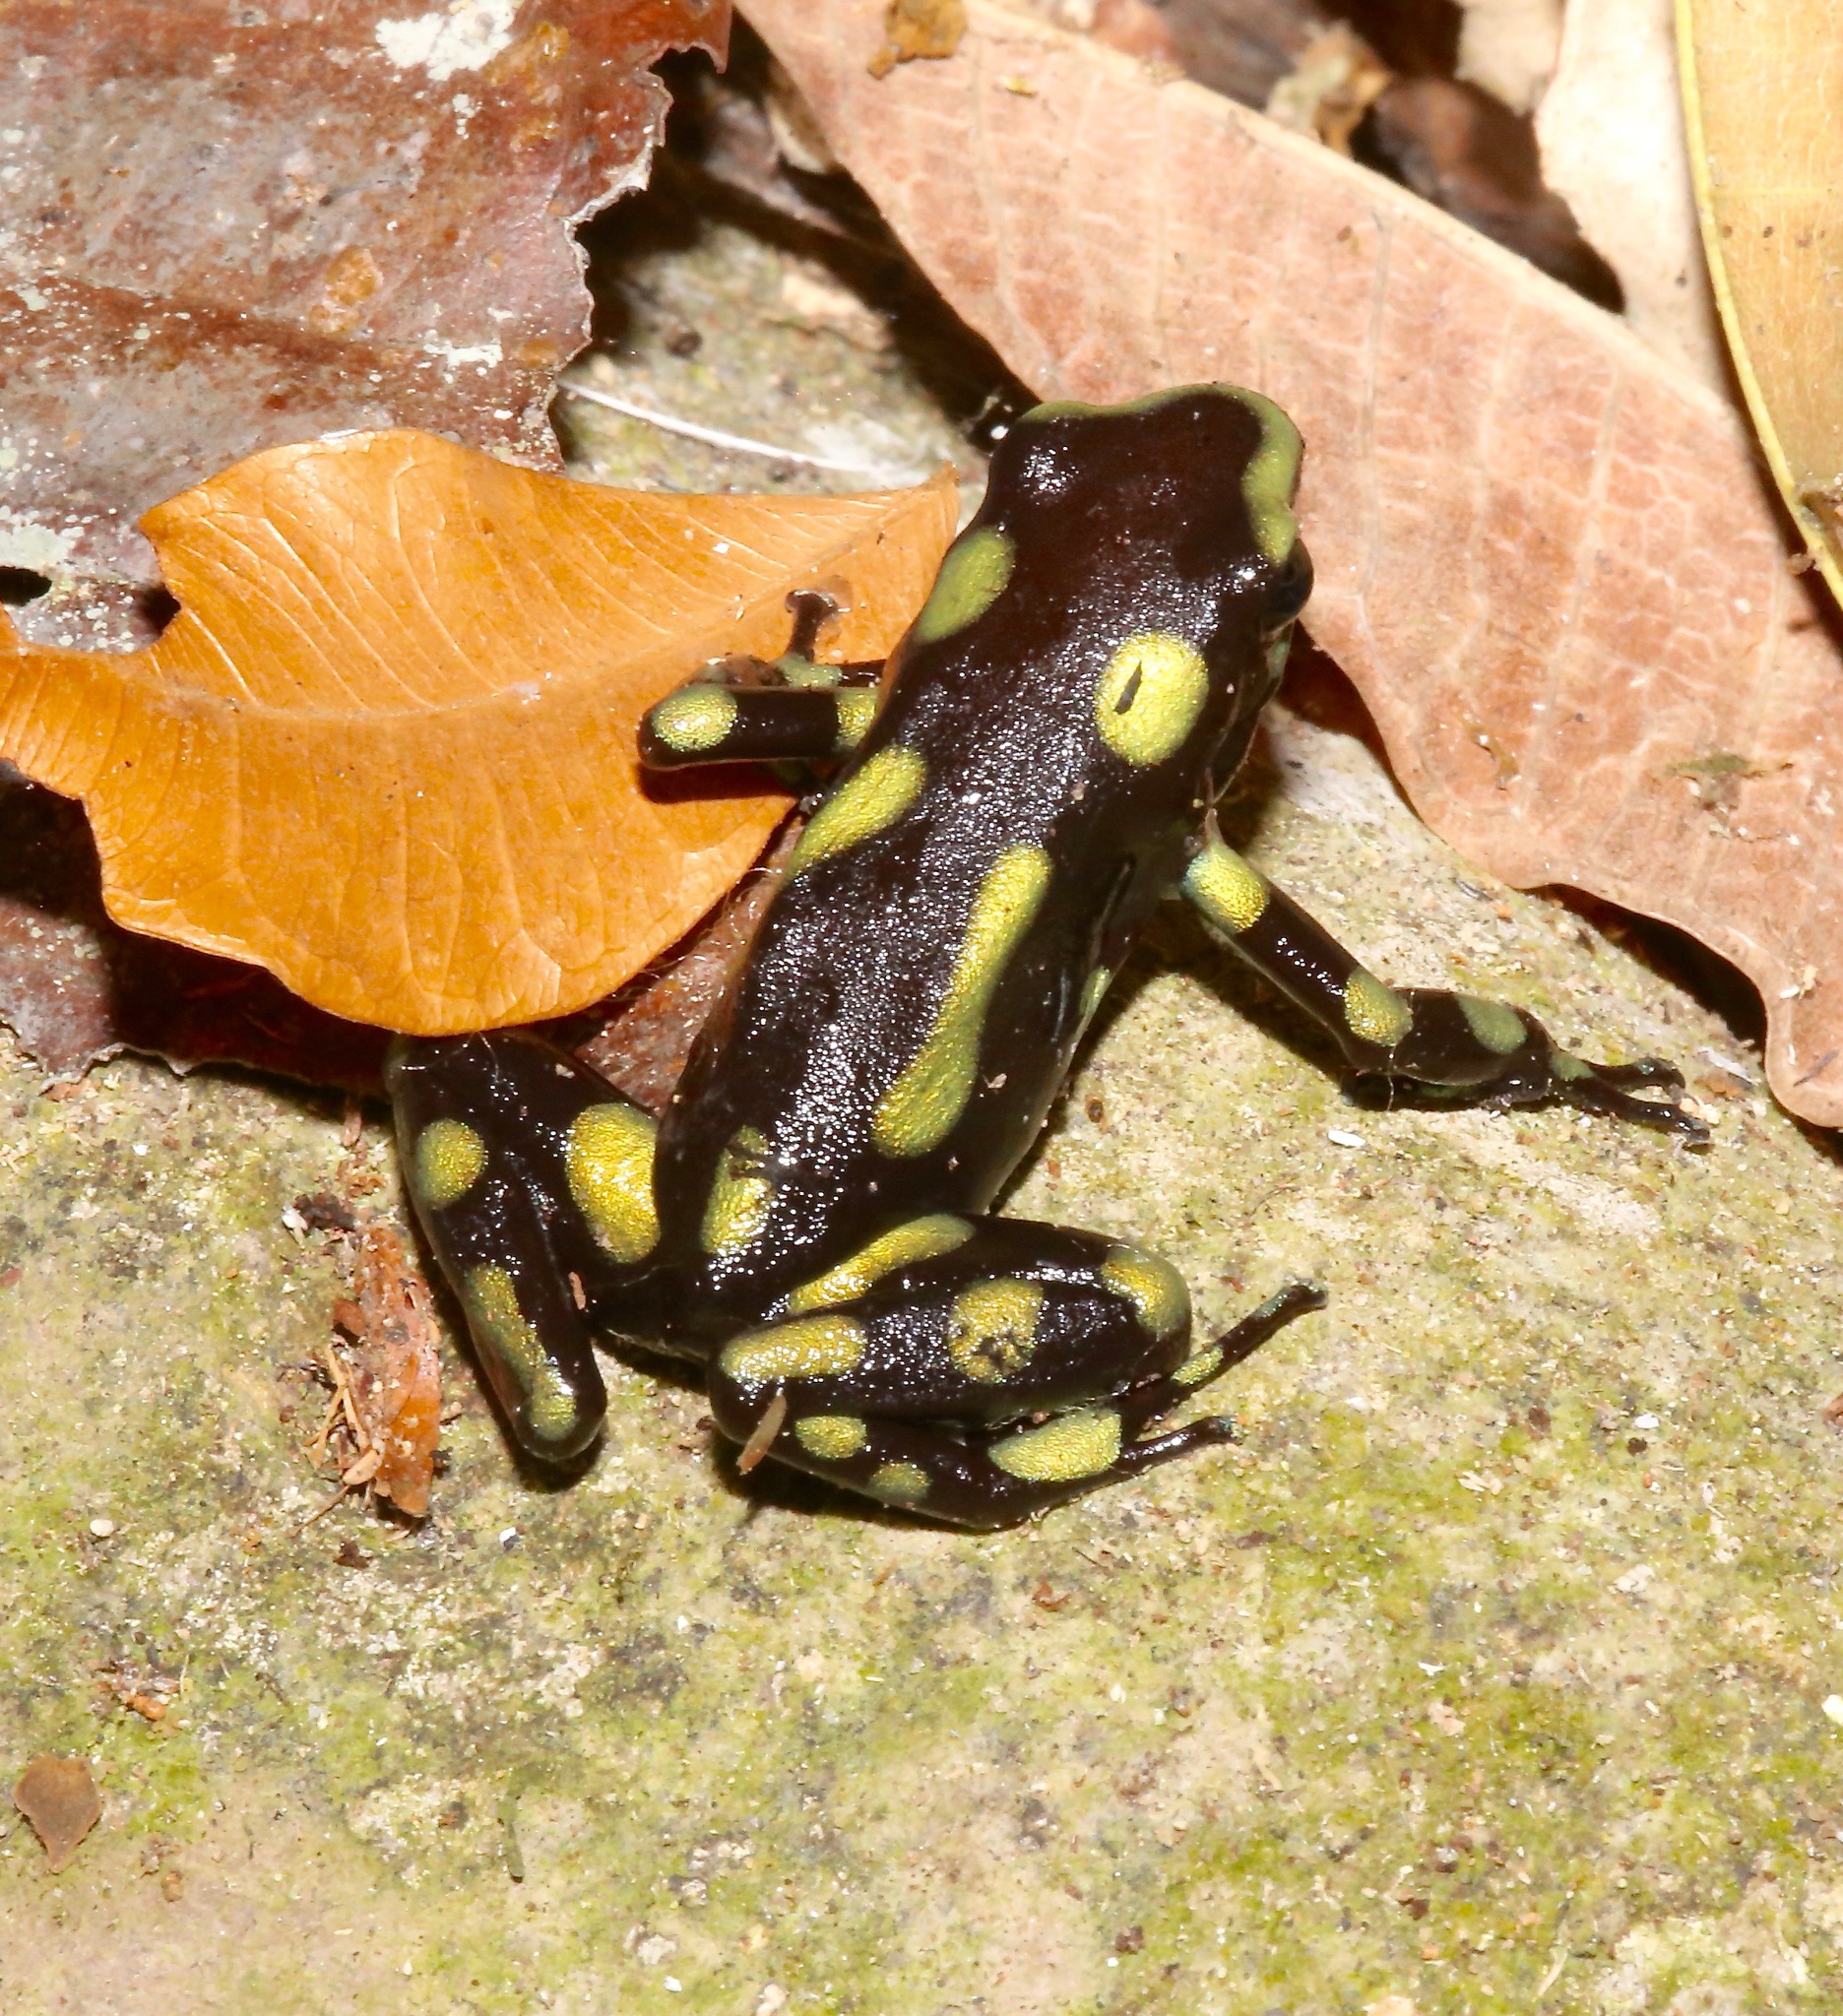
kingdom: Animalia
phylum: Chordata
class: Amphibia
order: Anura
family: Dendrobatidae
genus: Dendrobates
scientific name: Dendrobates auratus
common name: Green and black poison dart frog
